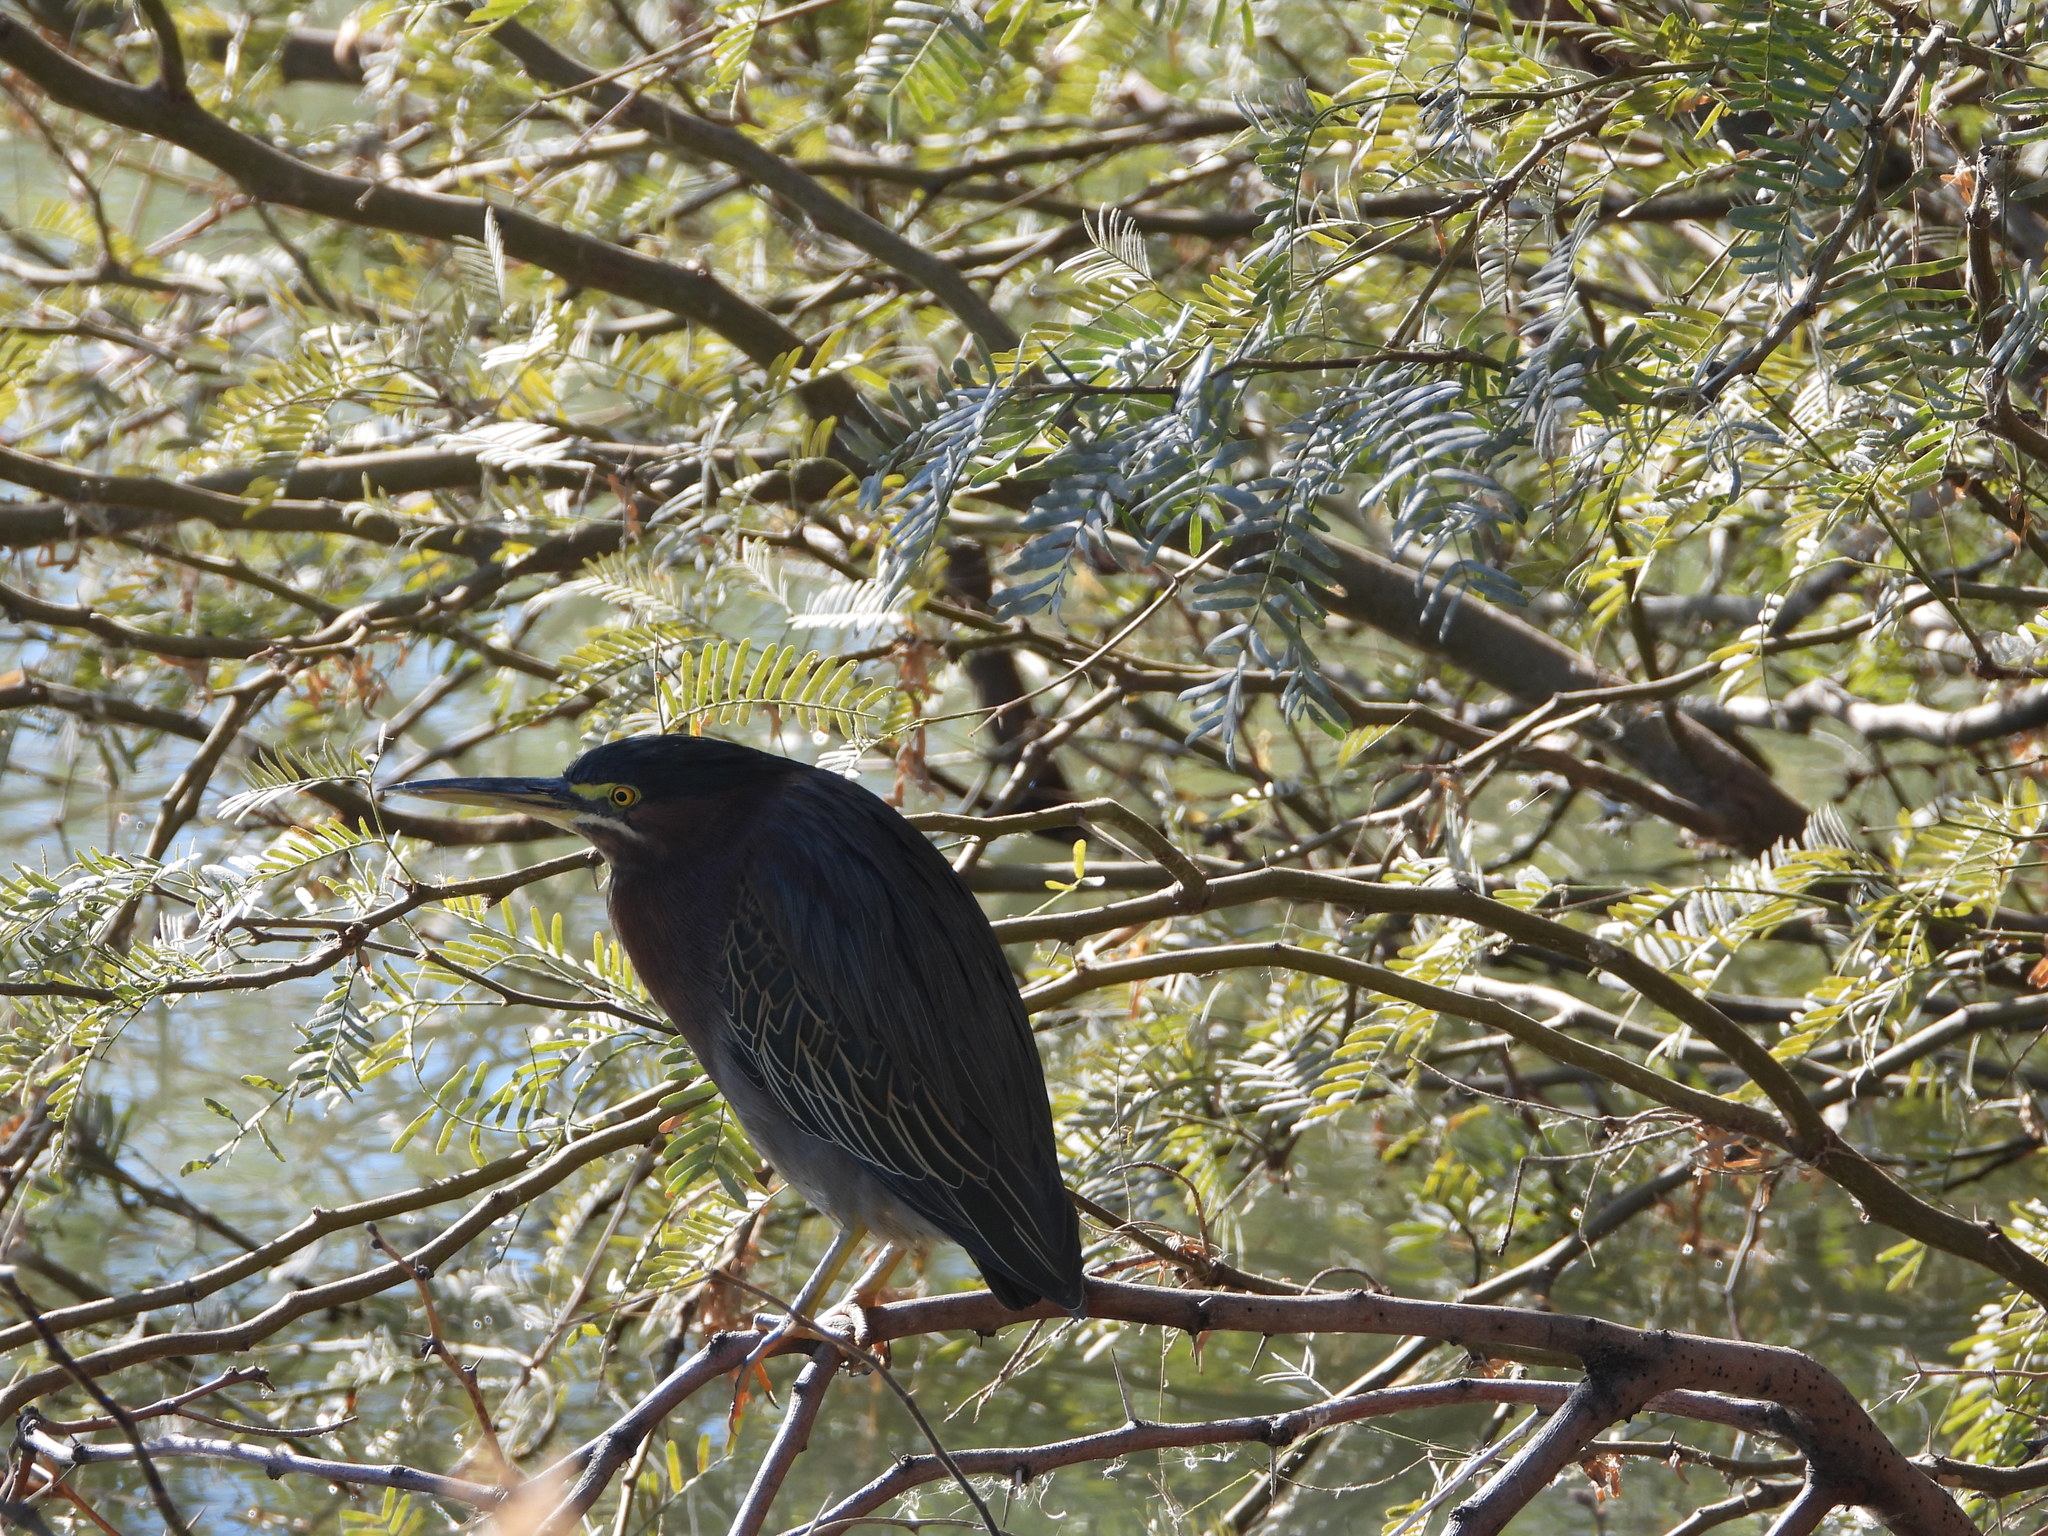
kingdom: Animalia
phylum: Chordata
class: Aves
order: Pelecaniformes
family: Ardeidae
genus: Butorides
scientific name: Butorides virescens
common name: Green heron
